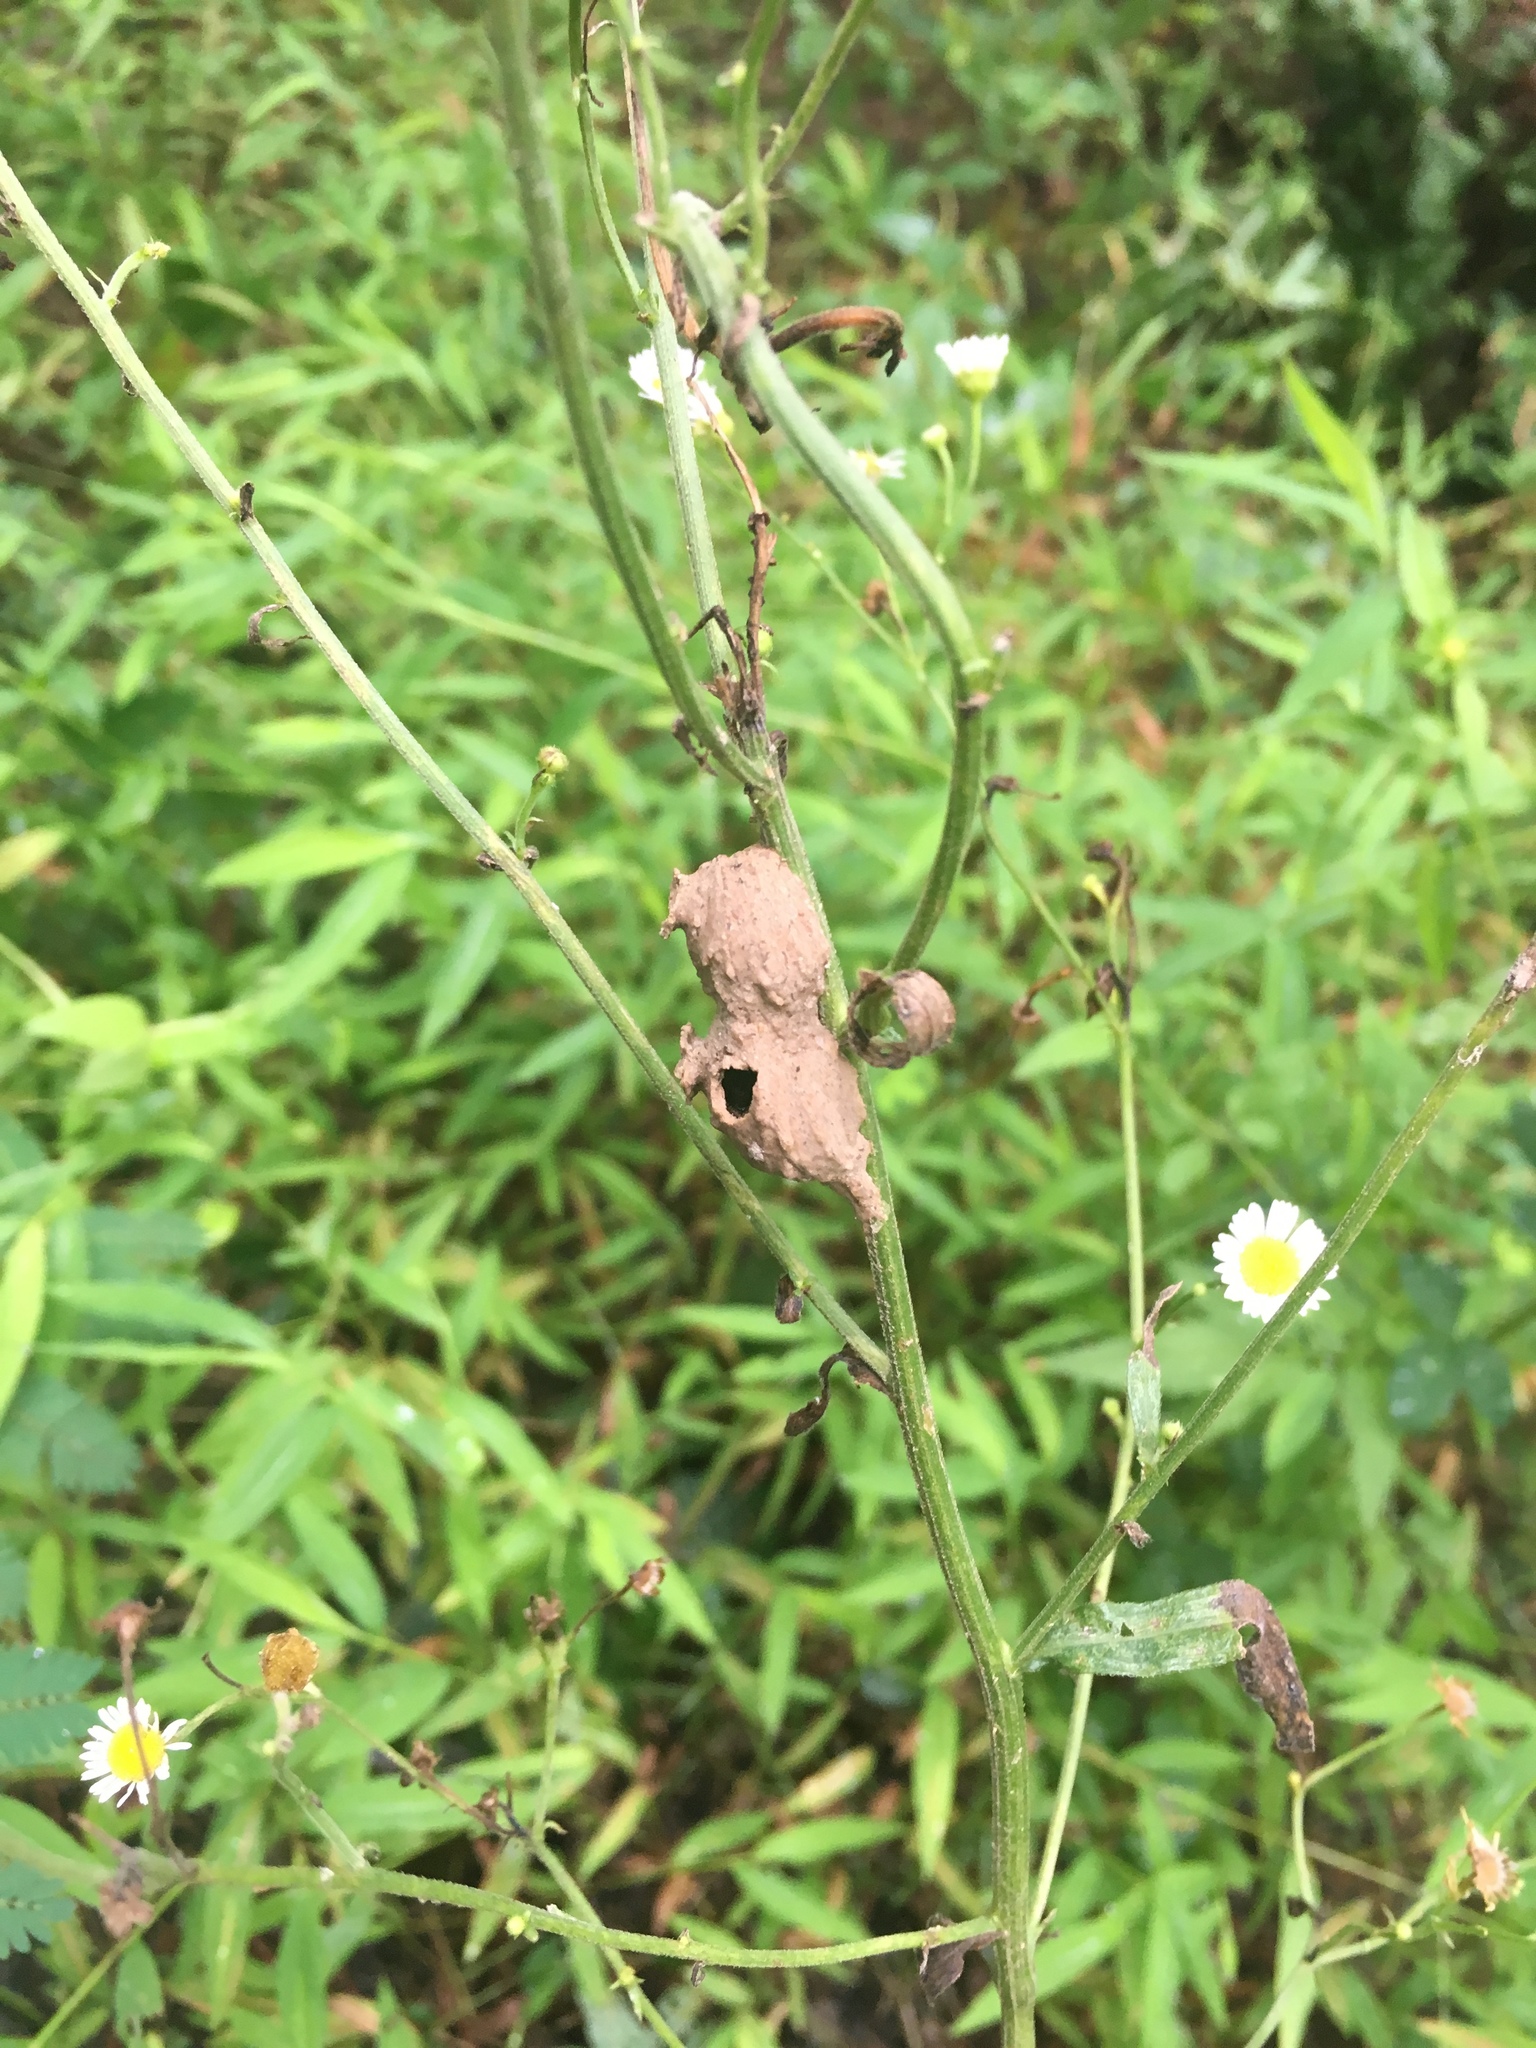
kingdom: Animalia
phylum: Arthropoda
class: Insecta
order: Hymenoptera
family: Vespidae
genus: Eumenes
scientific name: Eumenes
